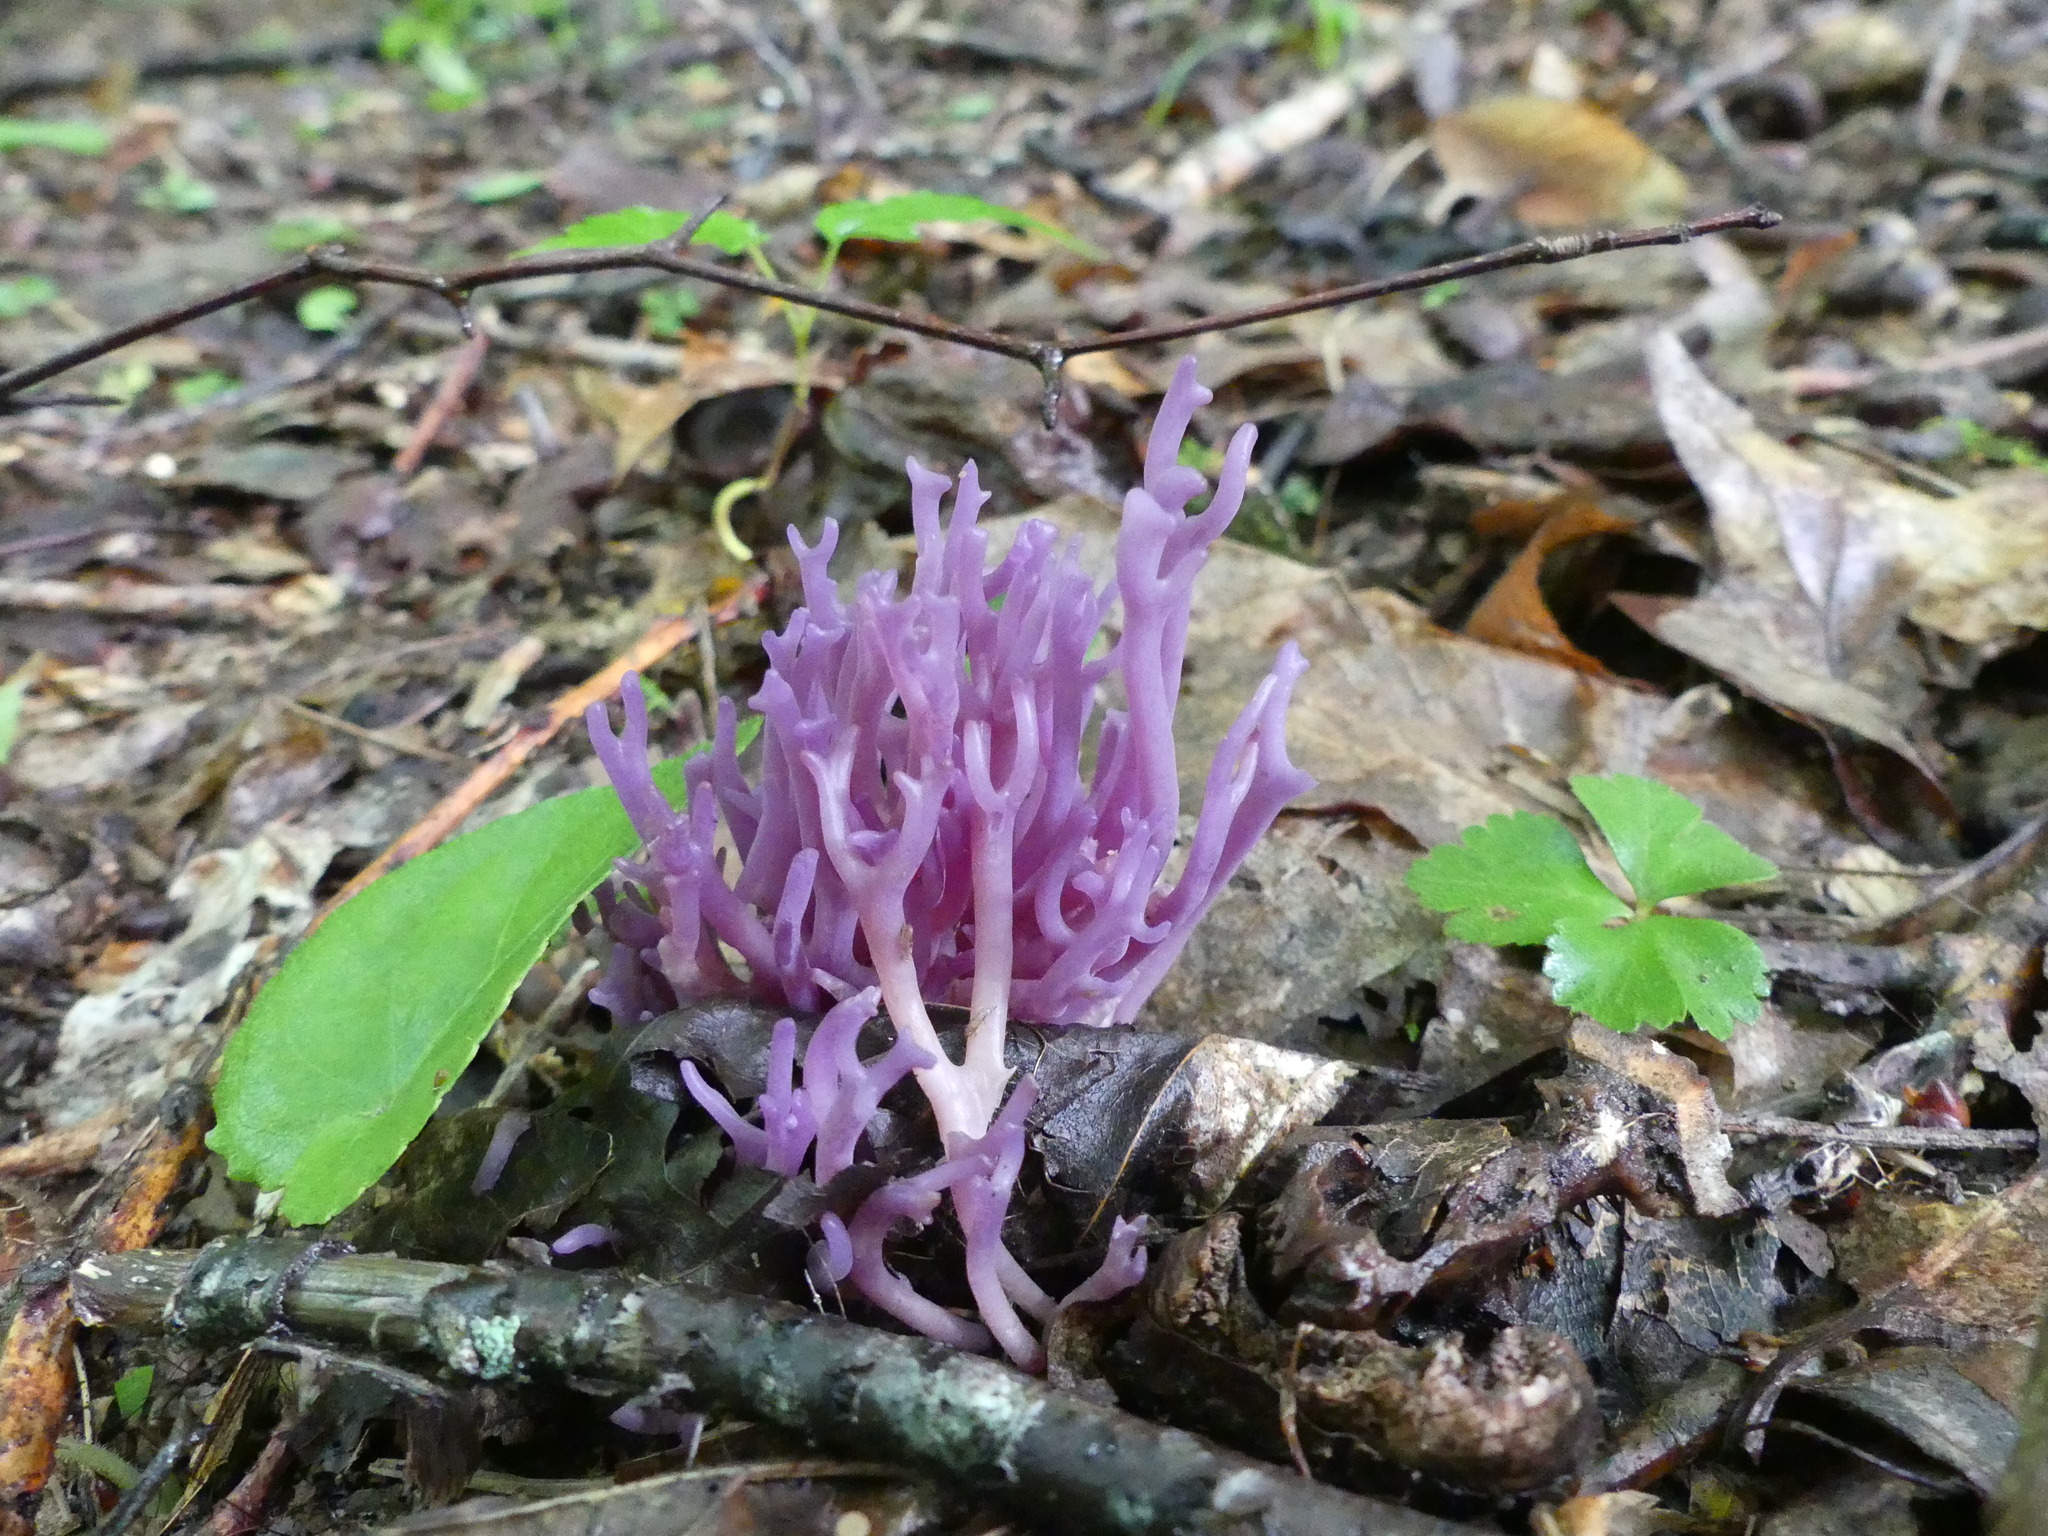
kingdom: Fungi
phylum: Basidiomycota
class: Agaricomycetes
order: Agaricales
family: Clavariaceae
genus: Clavaria
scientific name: Clavaria zollingeri
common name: Violet coral
